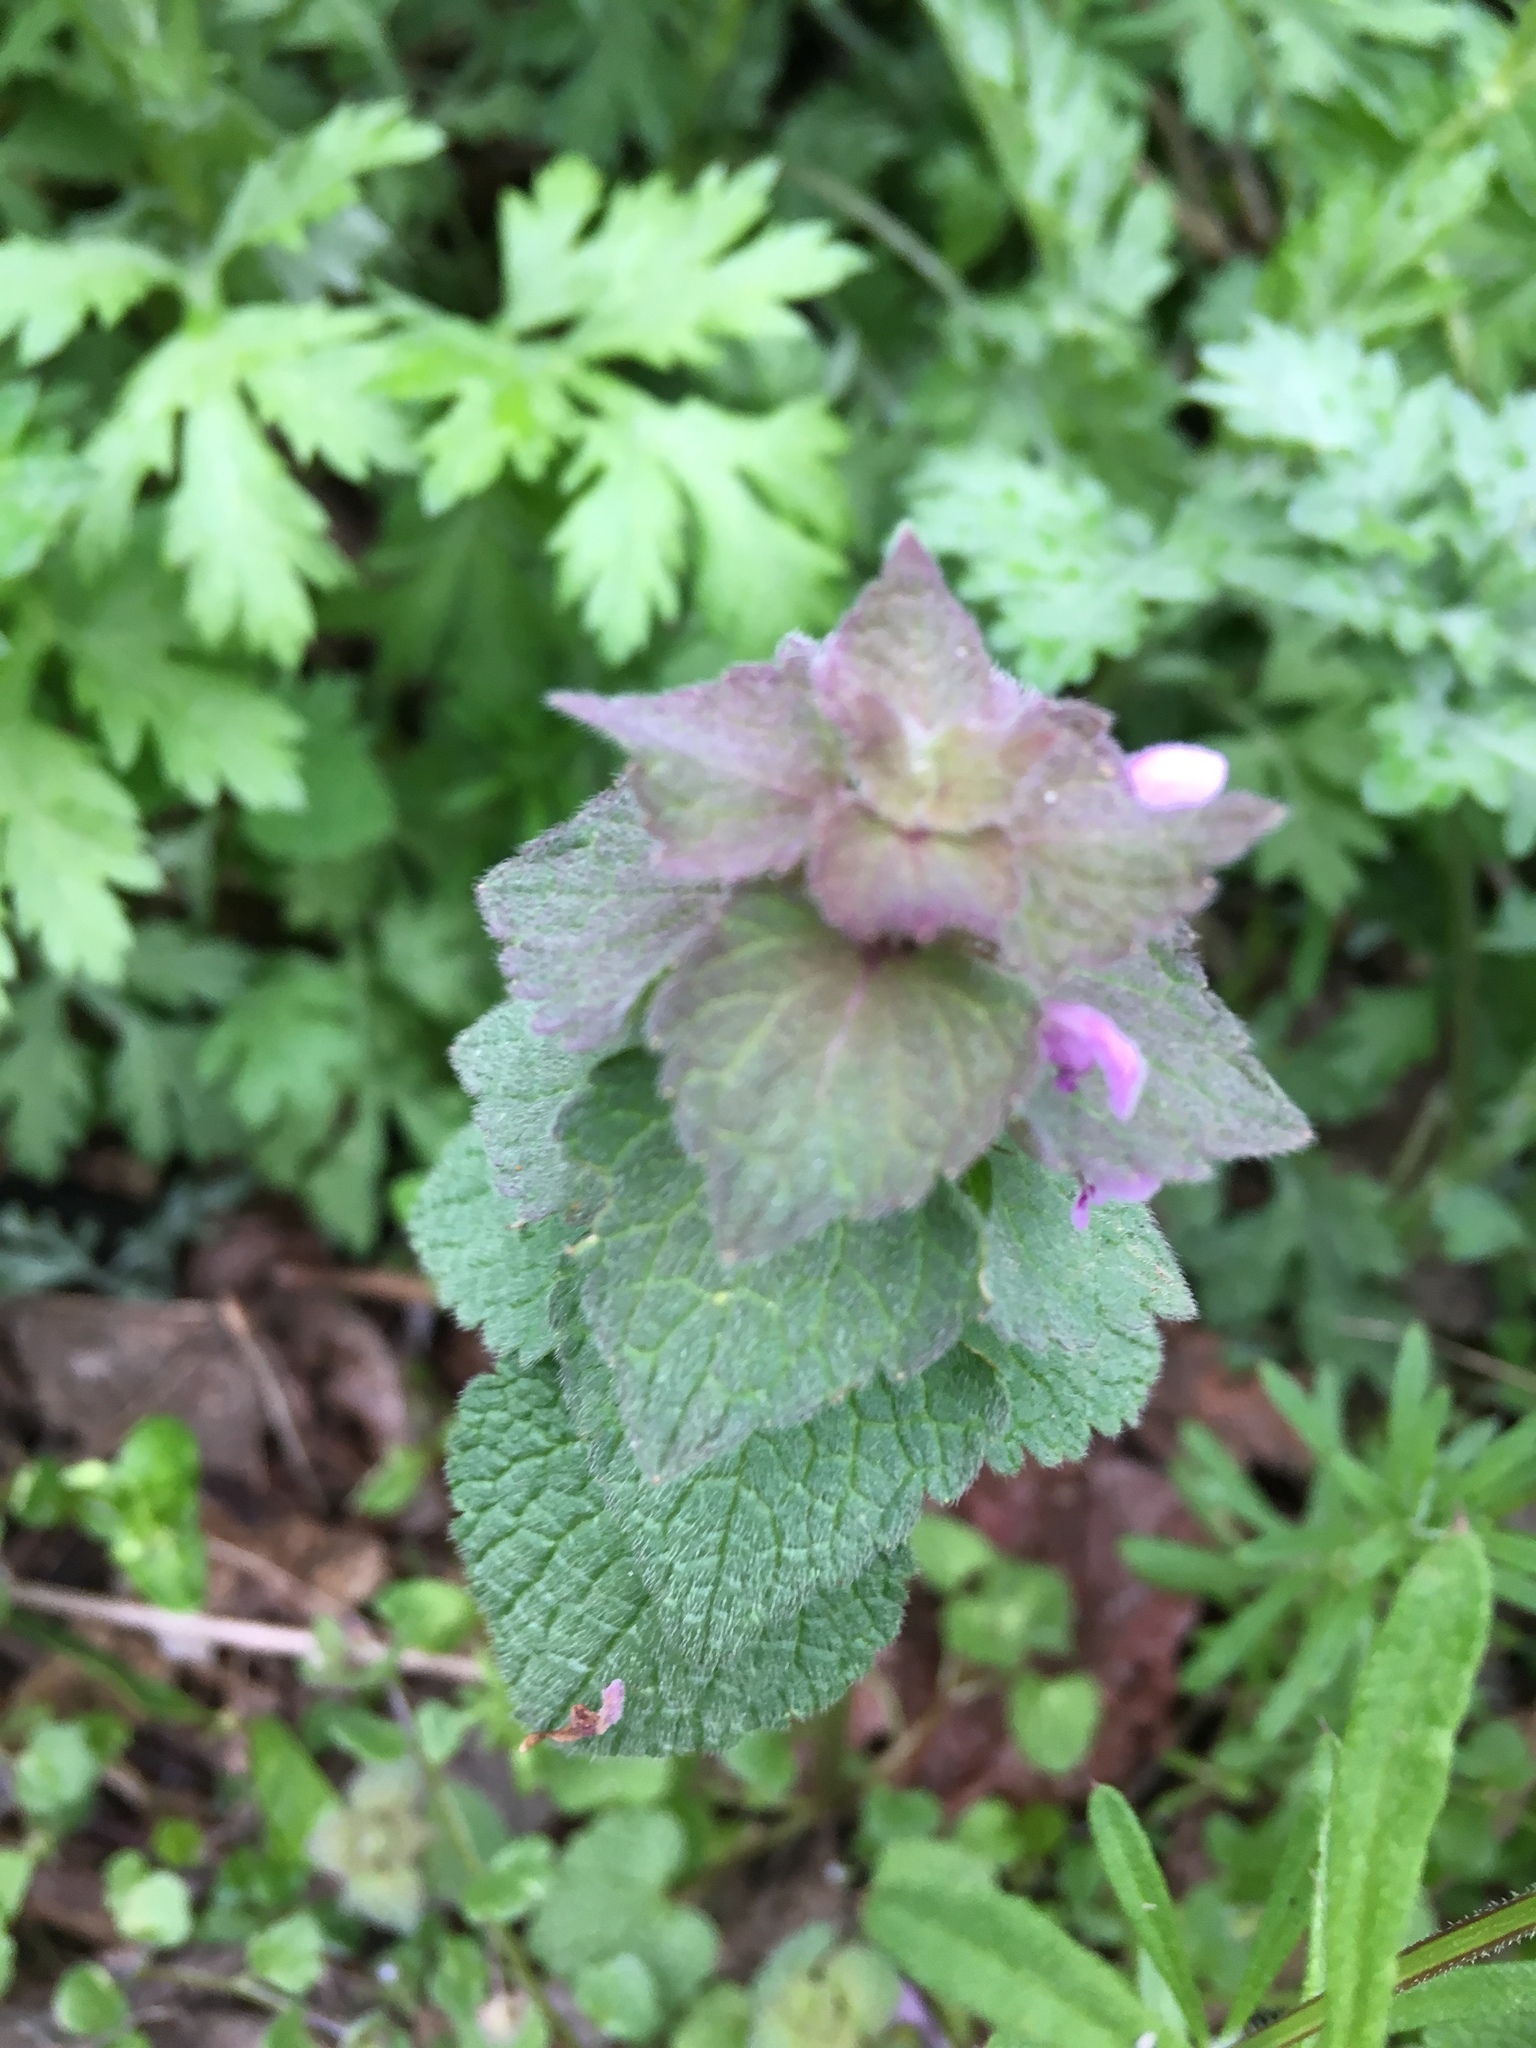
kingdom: Plantae
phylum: Tracheophyta
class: Magnoliopsida
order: Lamiales
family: Lamiaceae
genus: Lamium
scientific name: Lamium purpureum
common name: Red dead-nettle
